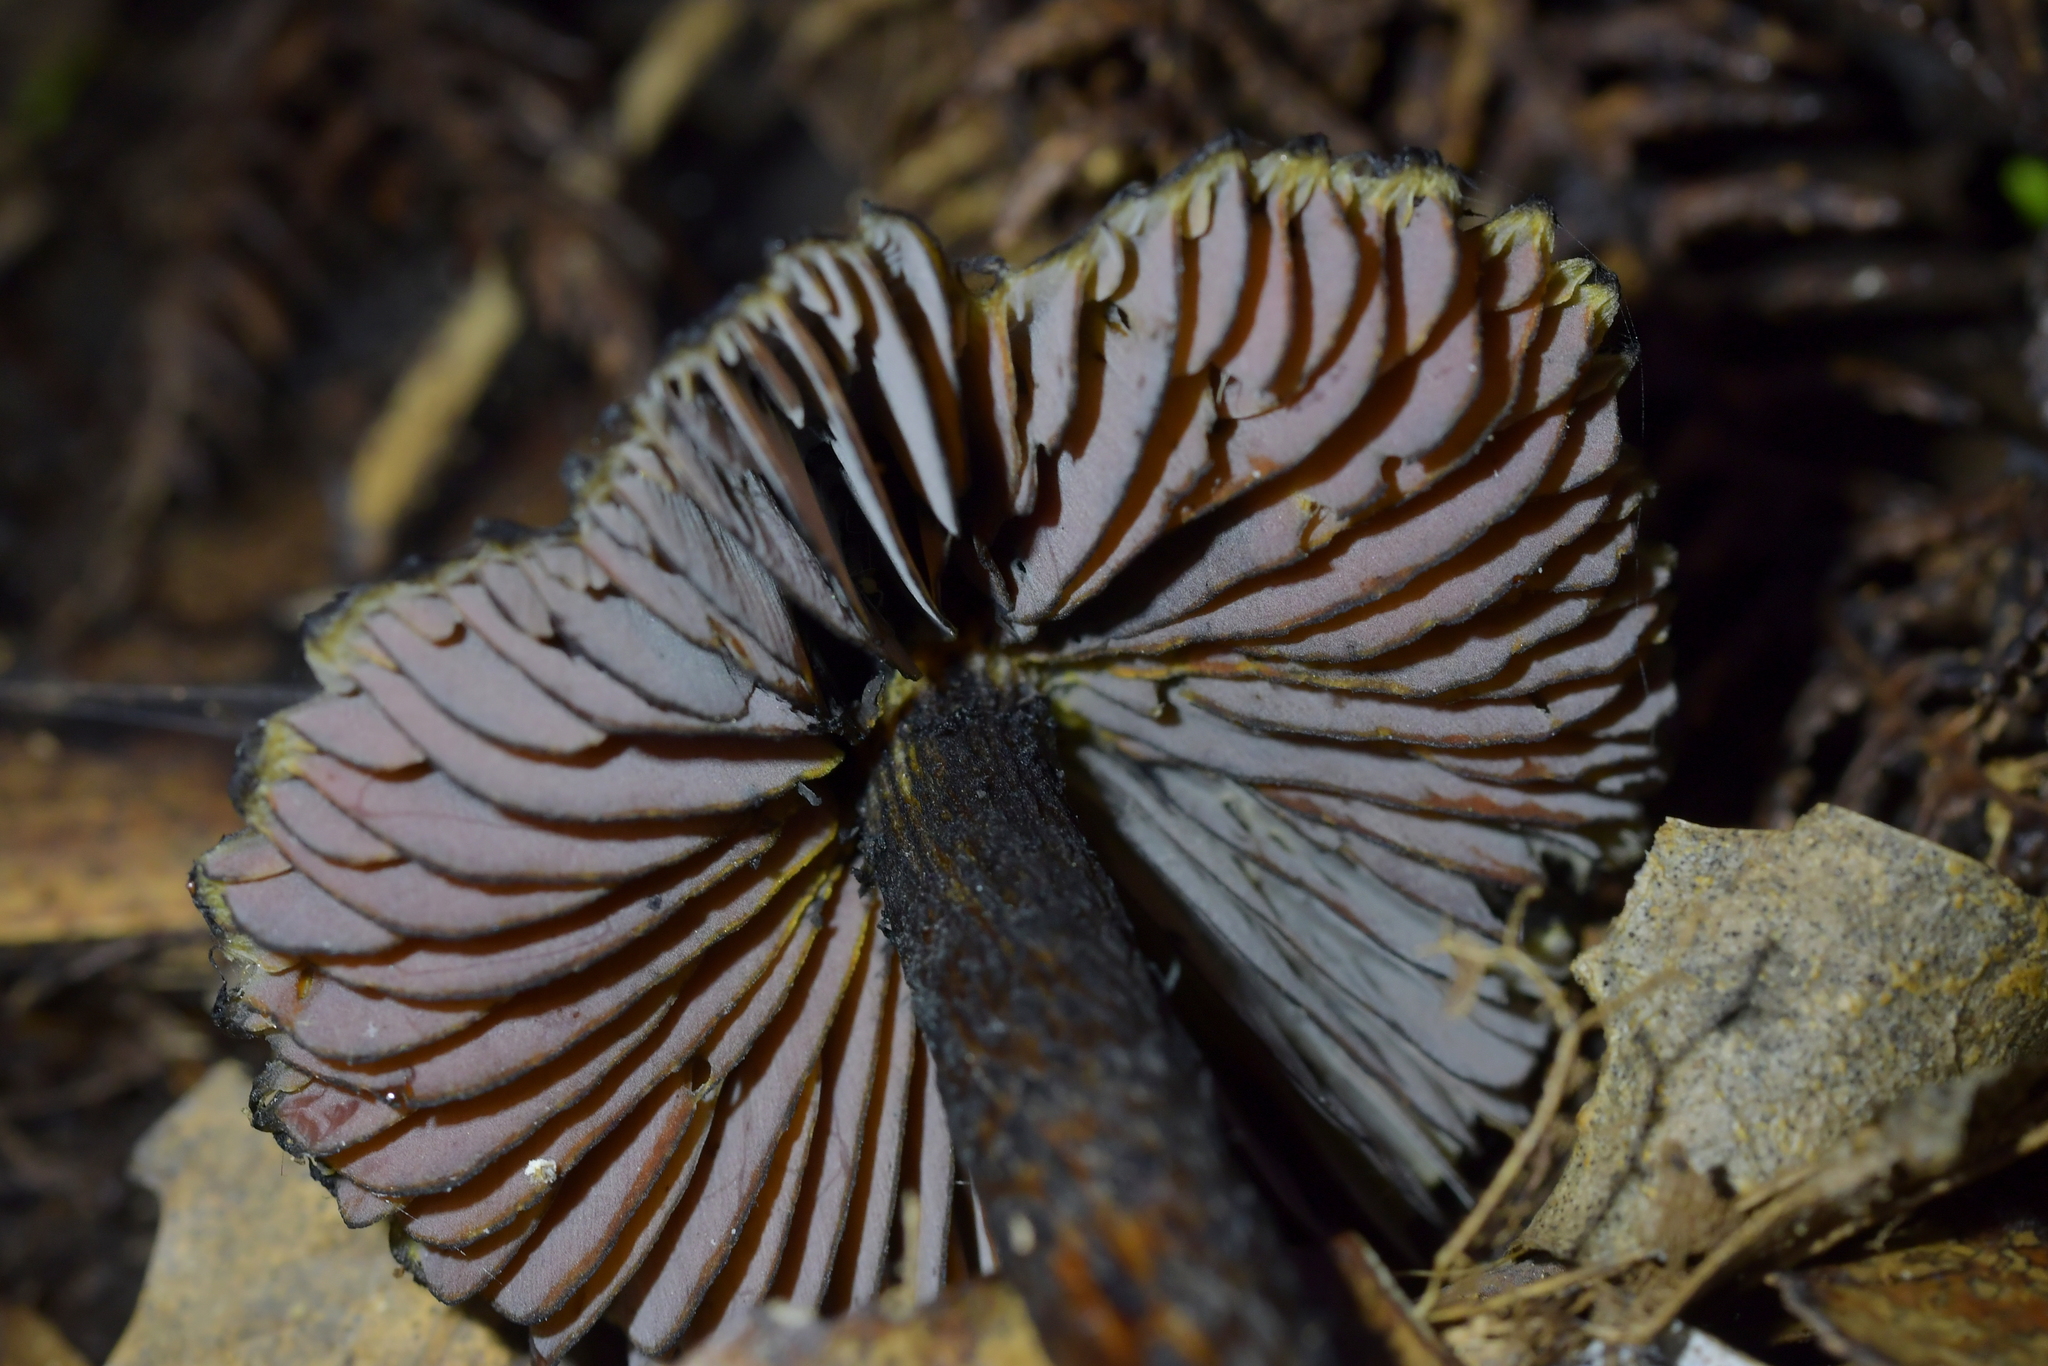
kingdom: Fungi
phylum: Basidiomycota
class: Agaricomycetes
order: Agaricales
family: Hygrophoraceae
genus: Hygrocybe
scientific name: Hygrocybe astatogala
